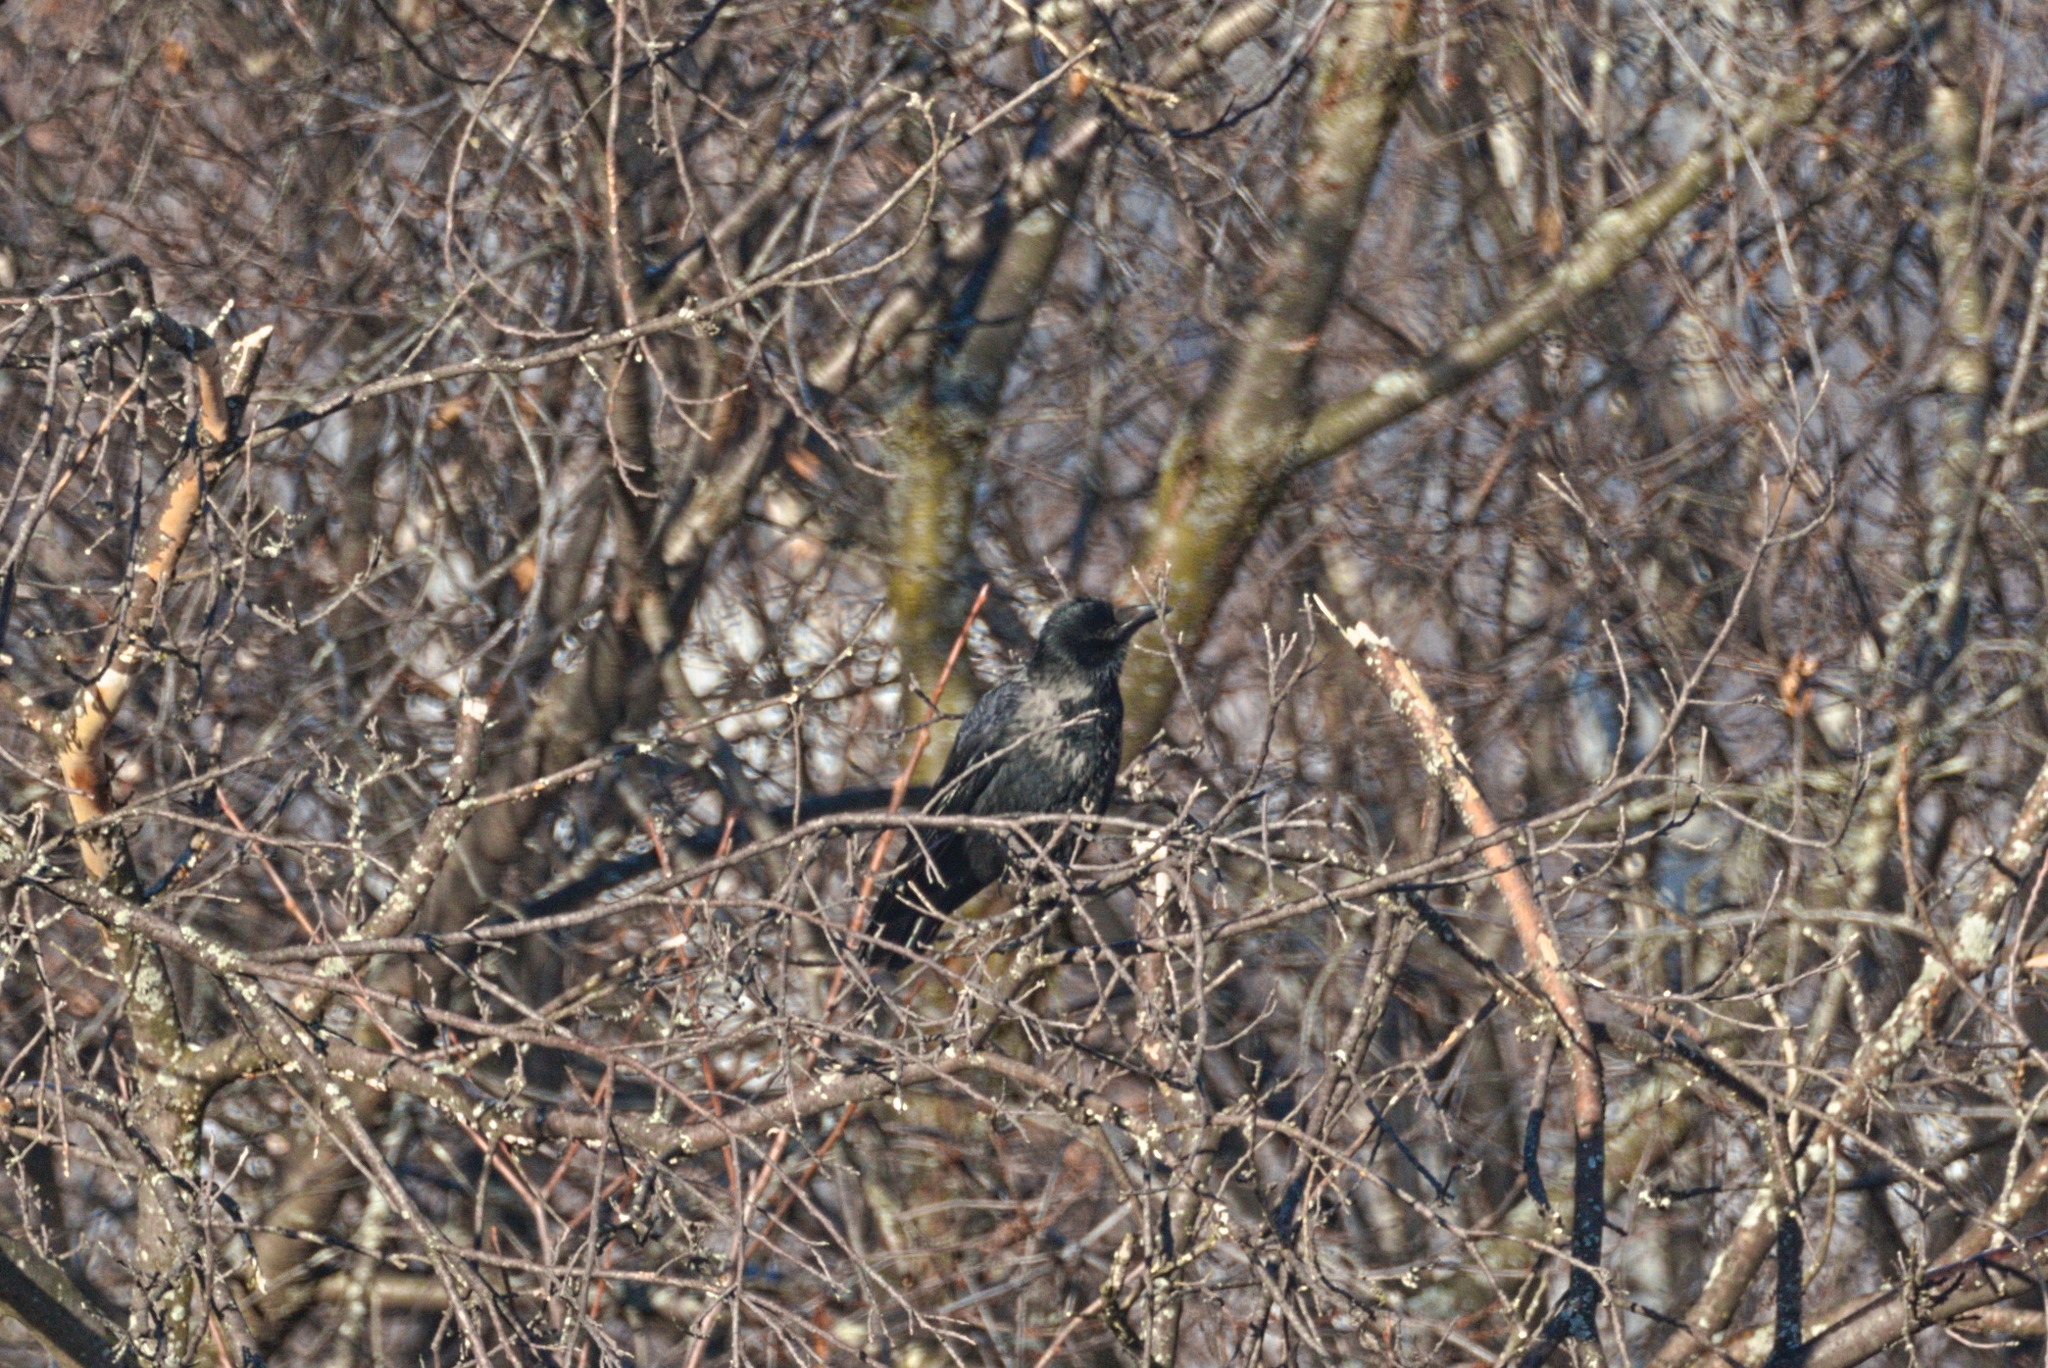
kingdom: Animalia
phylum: Chordata
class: Aves
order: Passeriformes
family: Corvidae
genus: Corvus
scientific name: Corvus
